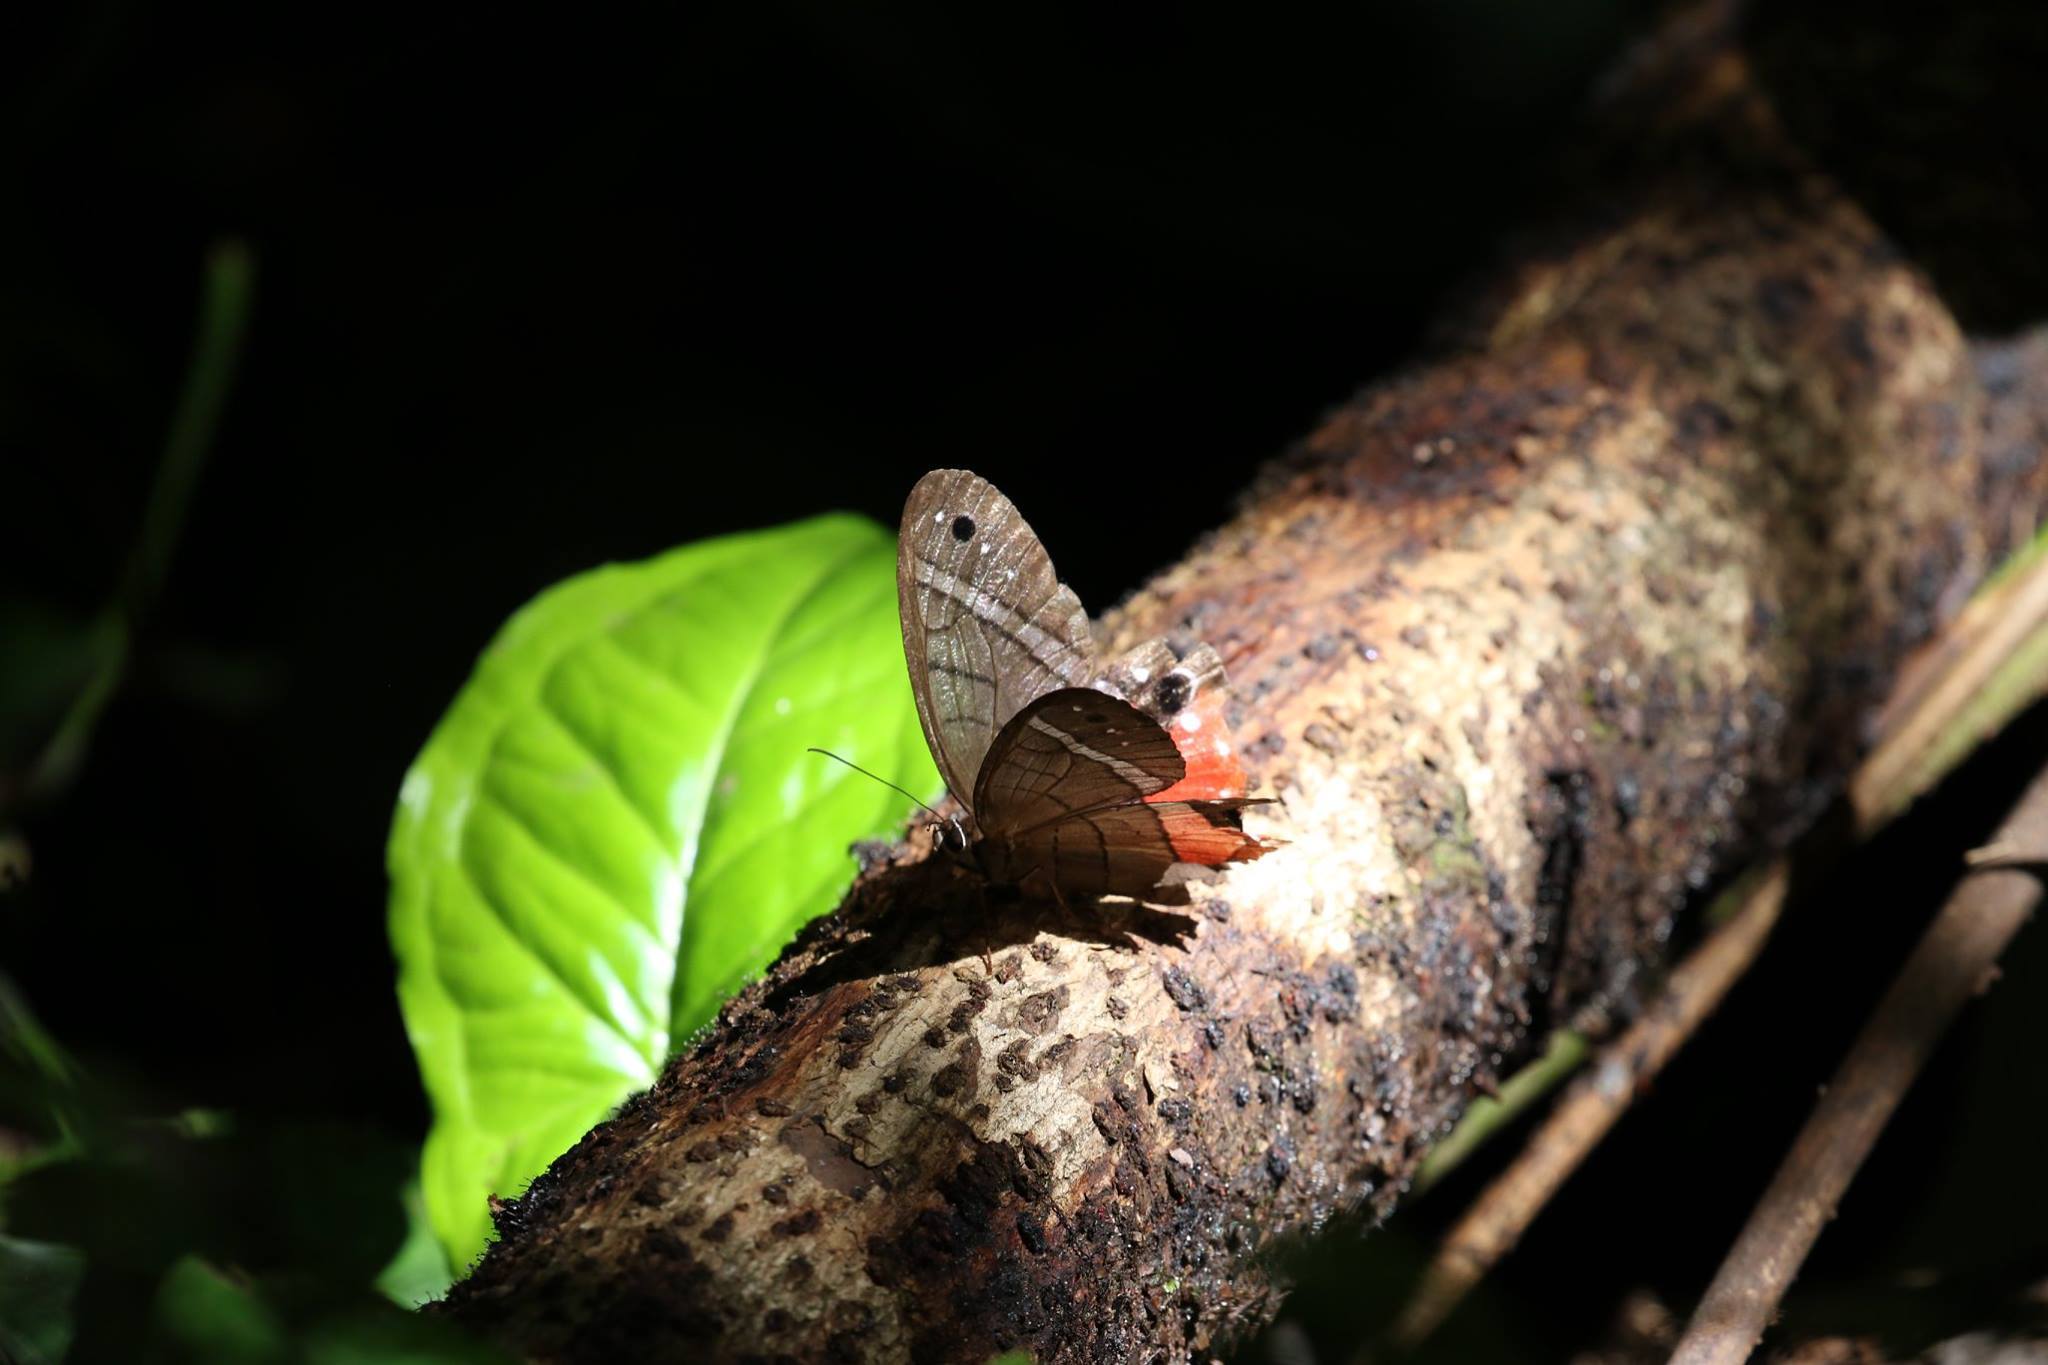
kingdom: Animalia
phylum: Arthropoda
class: Insecta
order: Lepidoptera
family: Nymphalidae
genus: Pierella
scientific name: Pierella helvina
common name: Red-washed satyr
